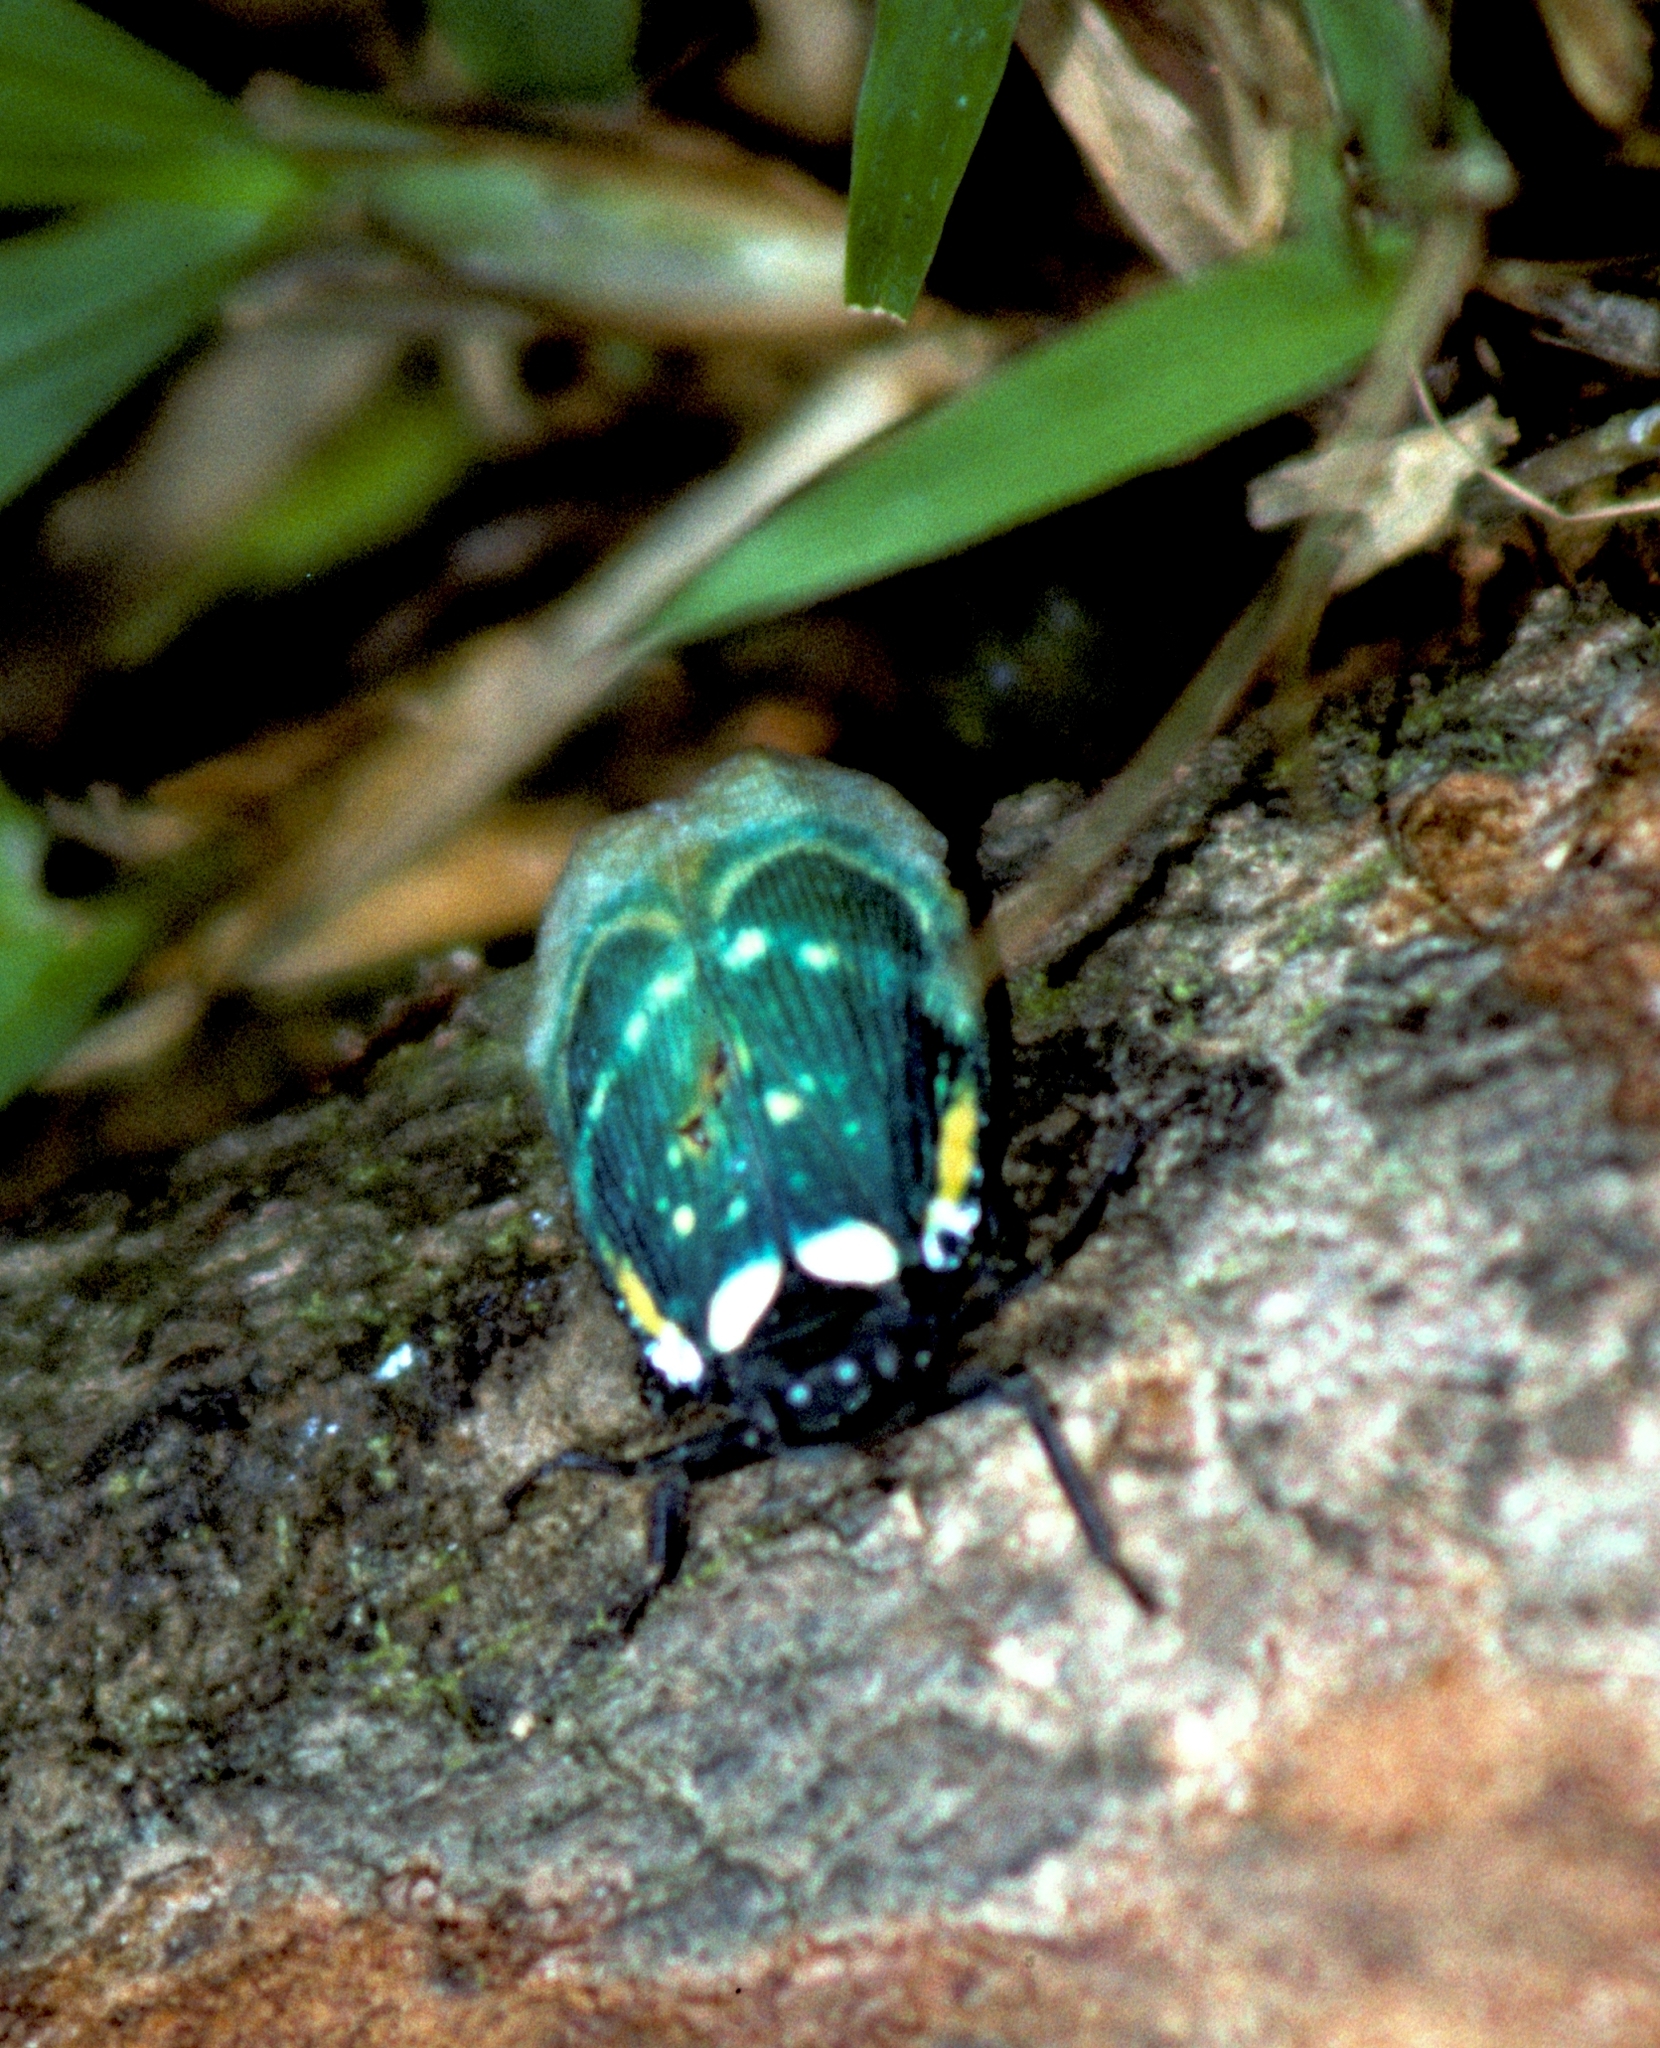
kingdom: Animalia
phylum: Arthropoda
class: Insecta
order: Hemiptera
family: Eurybrachidae
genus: Chalia
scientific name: Chalia pulchra
